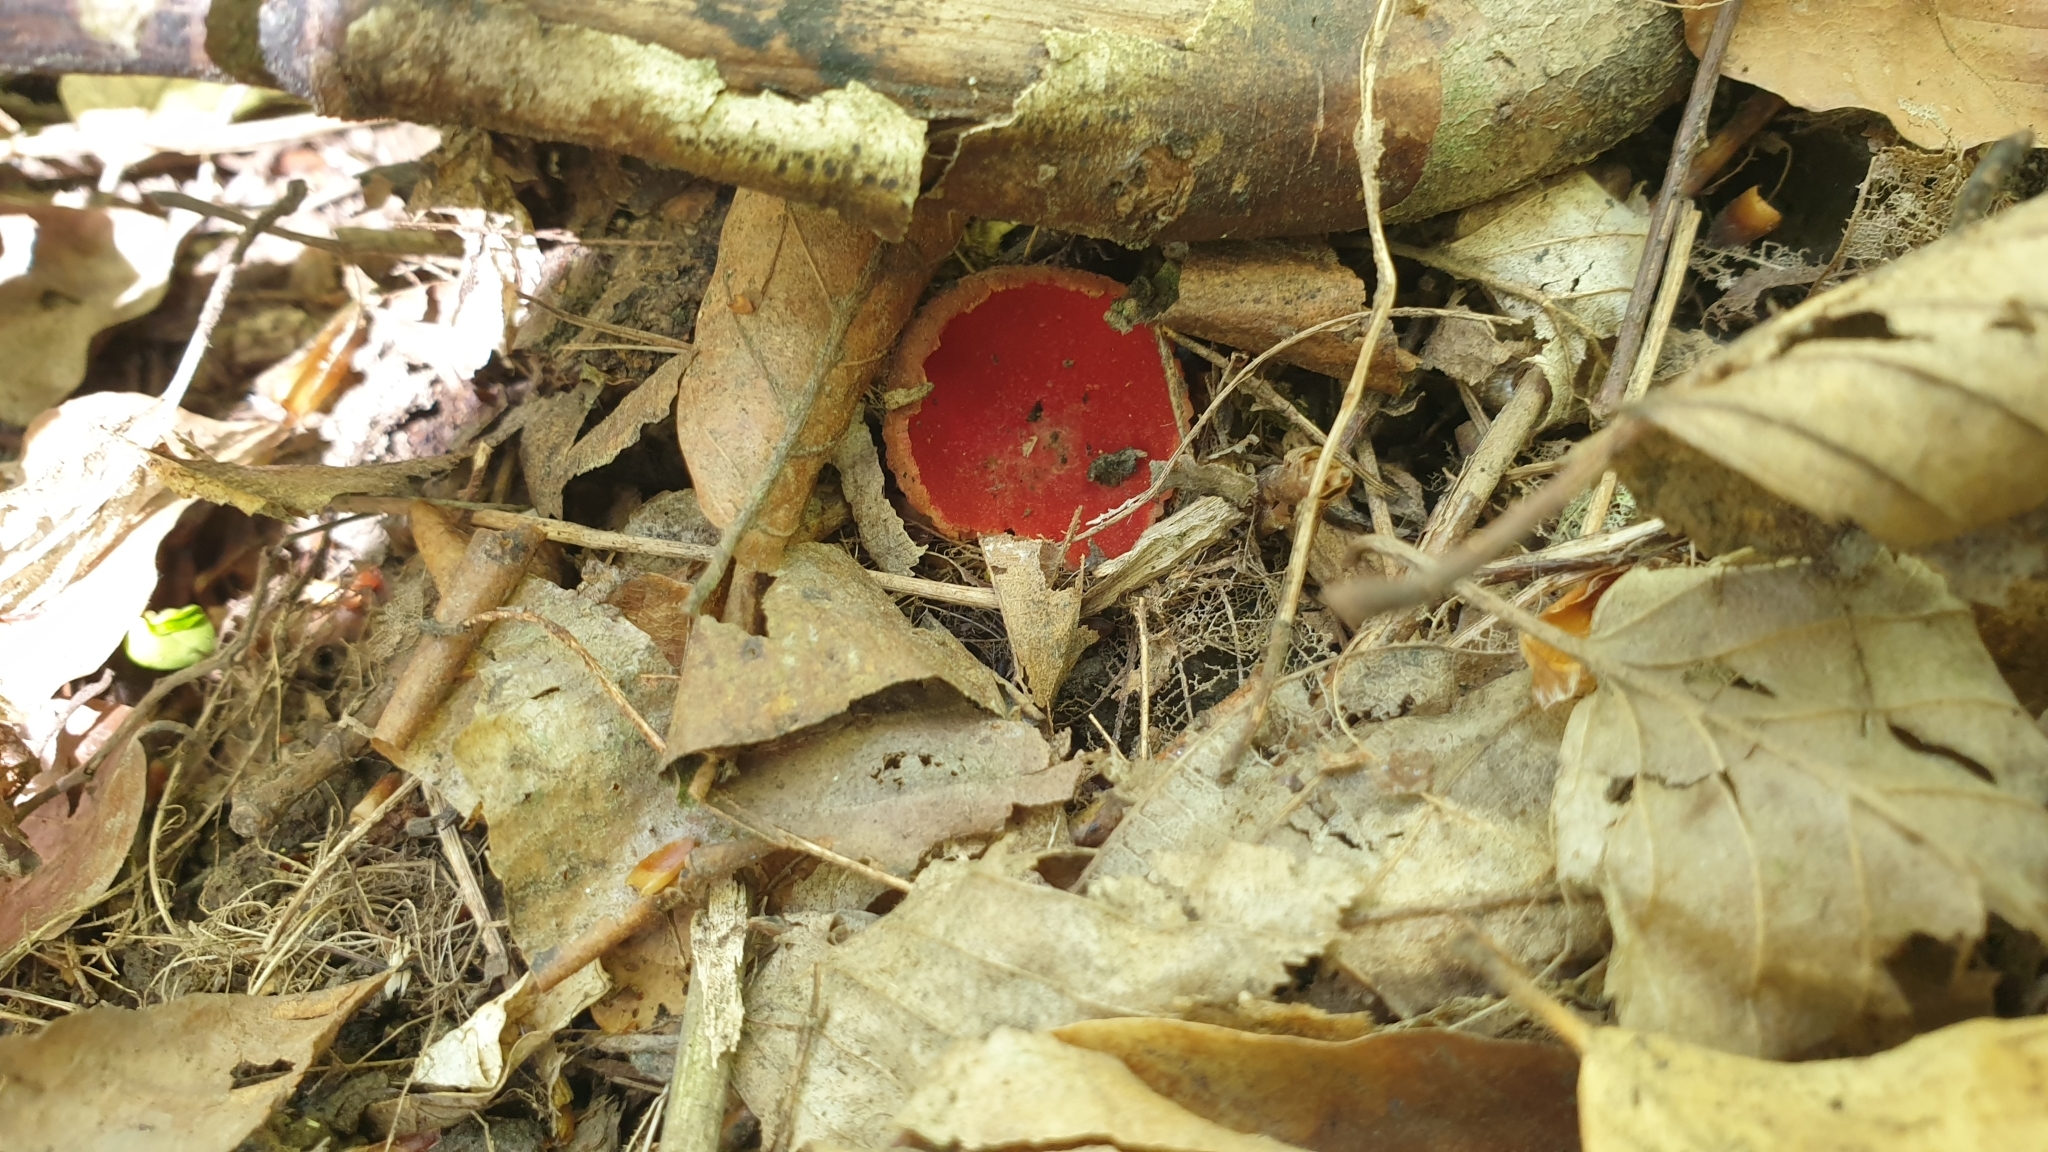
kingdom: Fungi
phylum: Ascomycota
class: Pezizomycetes
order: Pezizales
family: Sarcoscyphaceae
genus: Sarcoscypha
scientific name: Sarcoscypha
